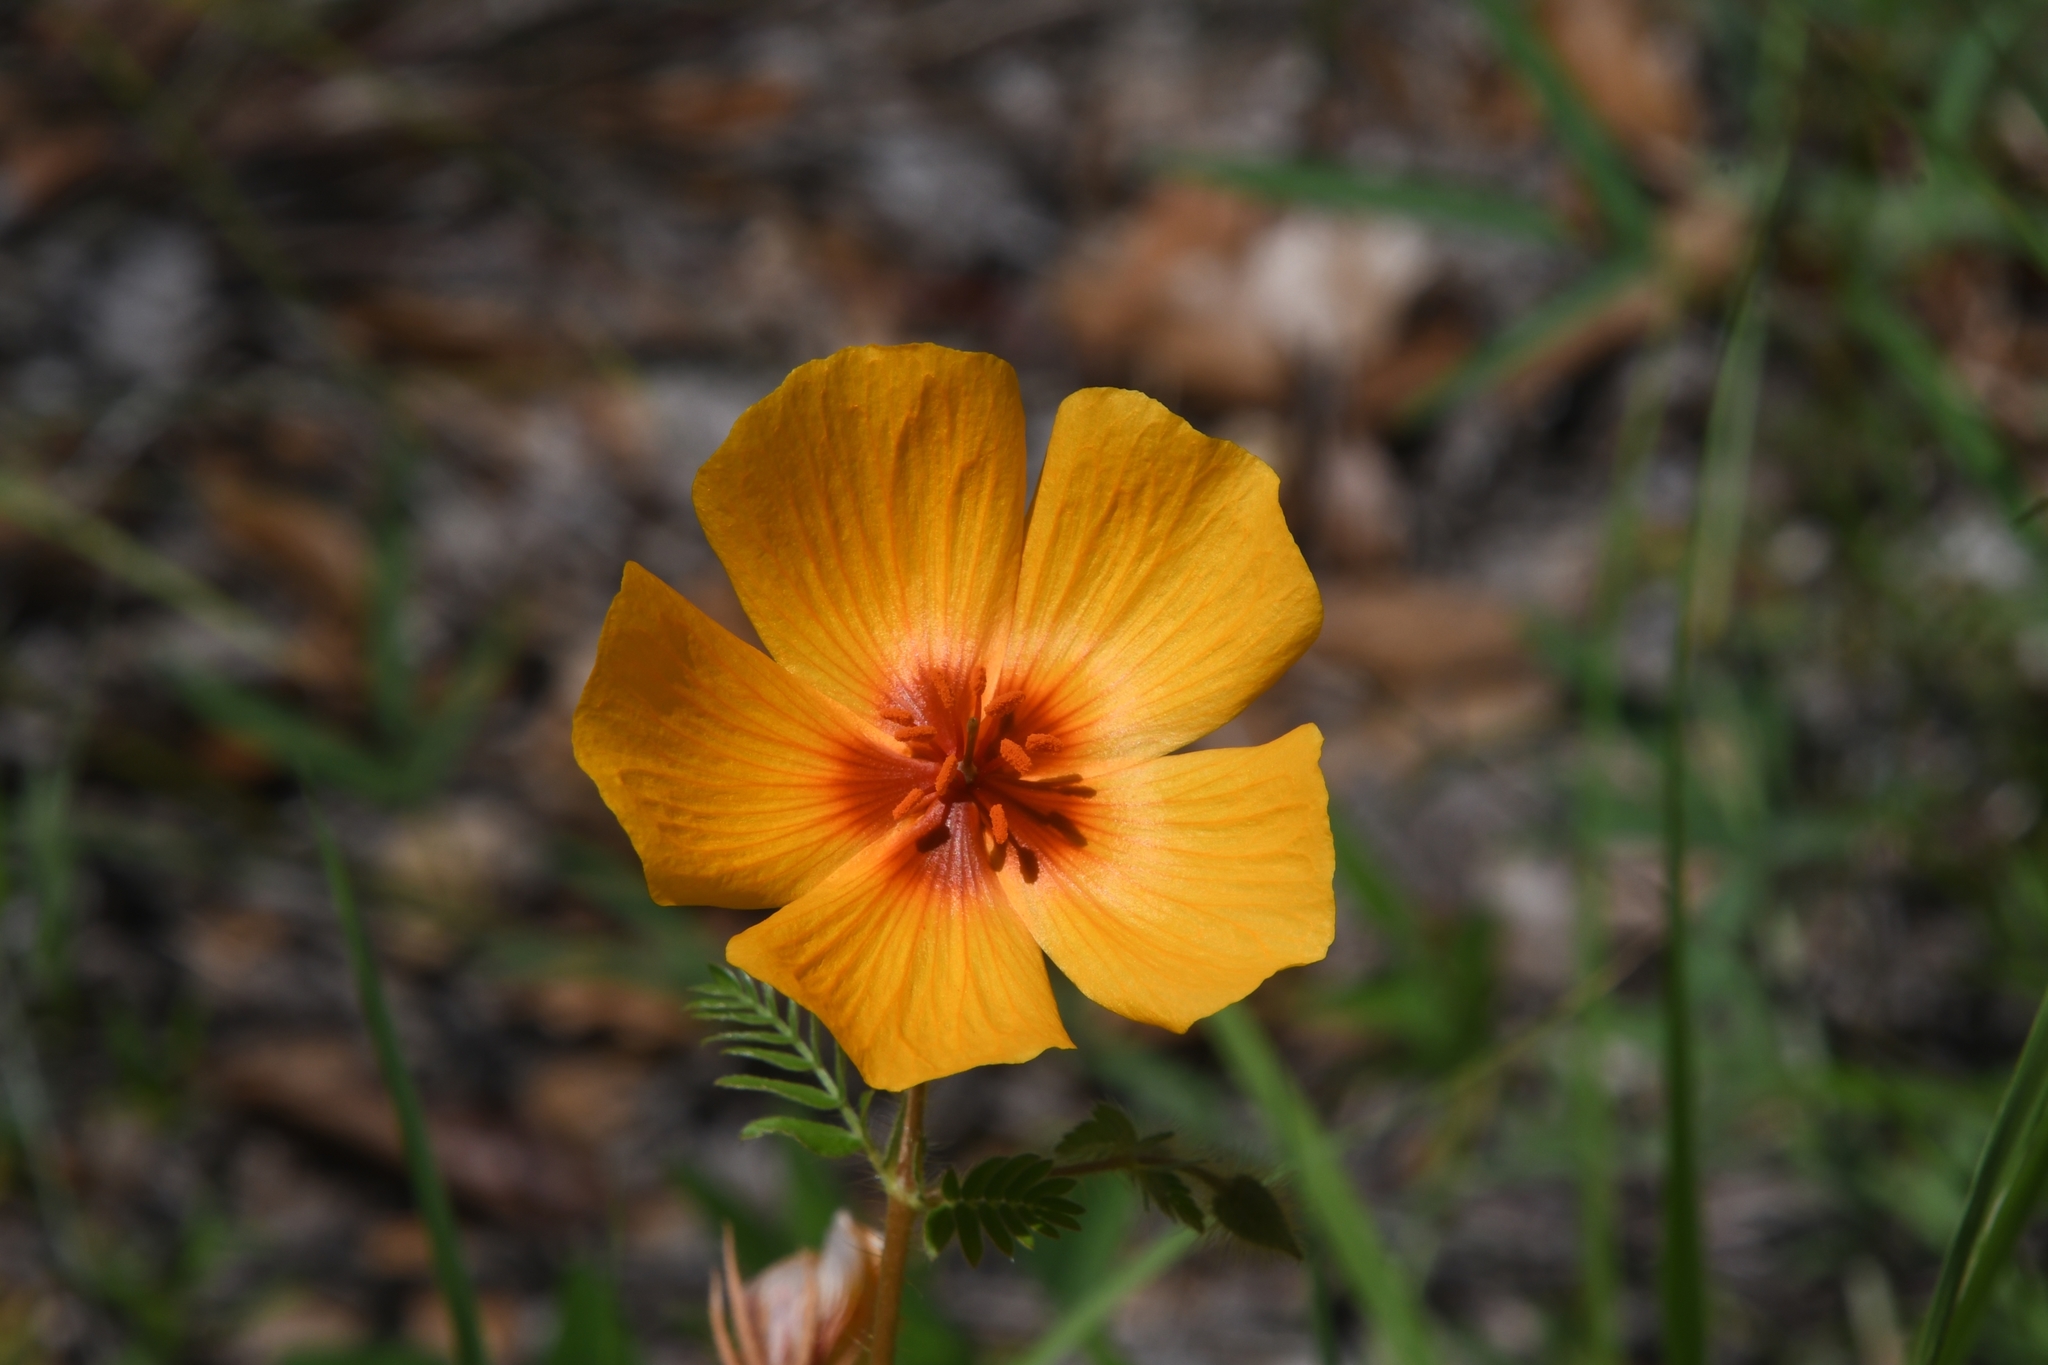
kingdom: Plantae
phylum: Tracheophyta
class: Magnoliopsida
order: Zygophyllales
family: Zygophyllaceae
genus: Kallstroemia
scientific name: Kallstroemia grandiflora
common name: Arizona-poppy
